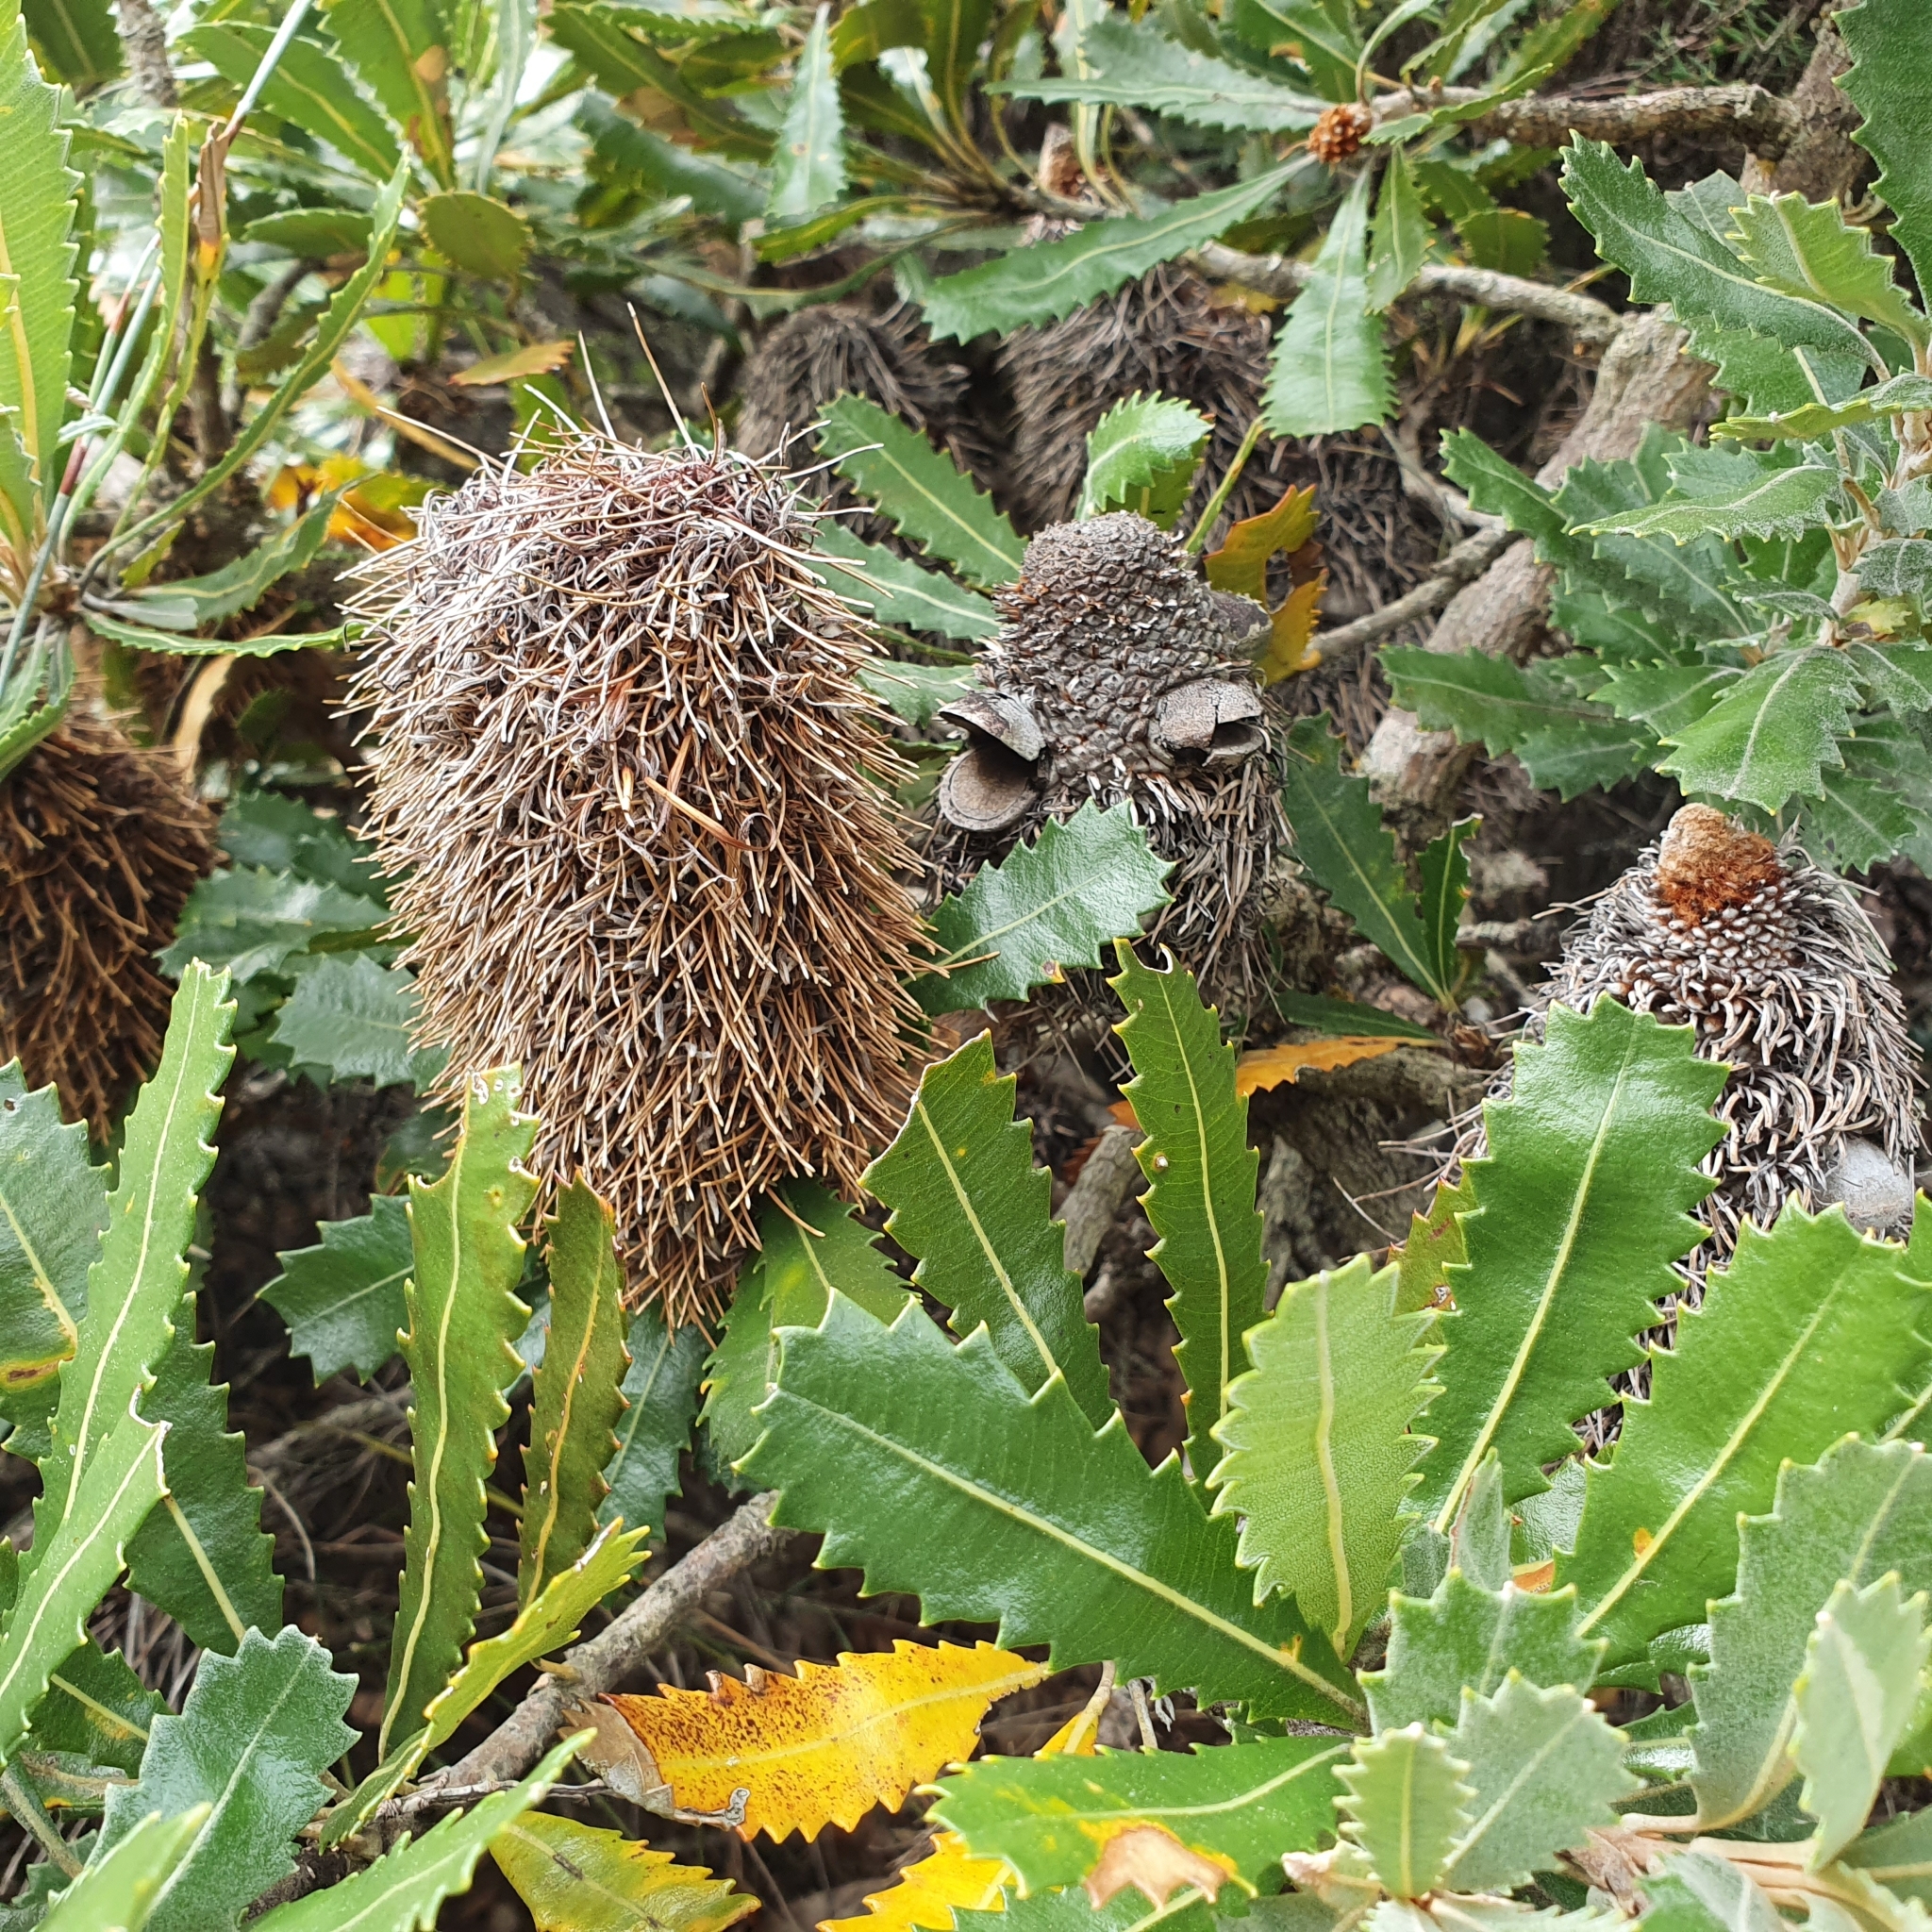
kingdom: Plantae
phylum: Tracheophyta
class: Magnoliopsida
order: Proteales
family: Proteaceae
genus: Banksia
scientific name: Banksia serrata
